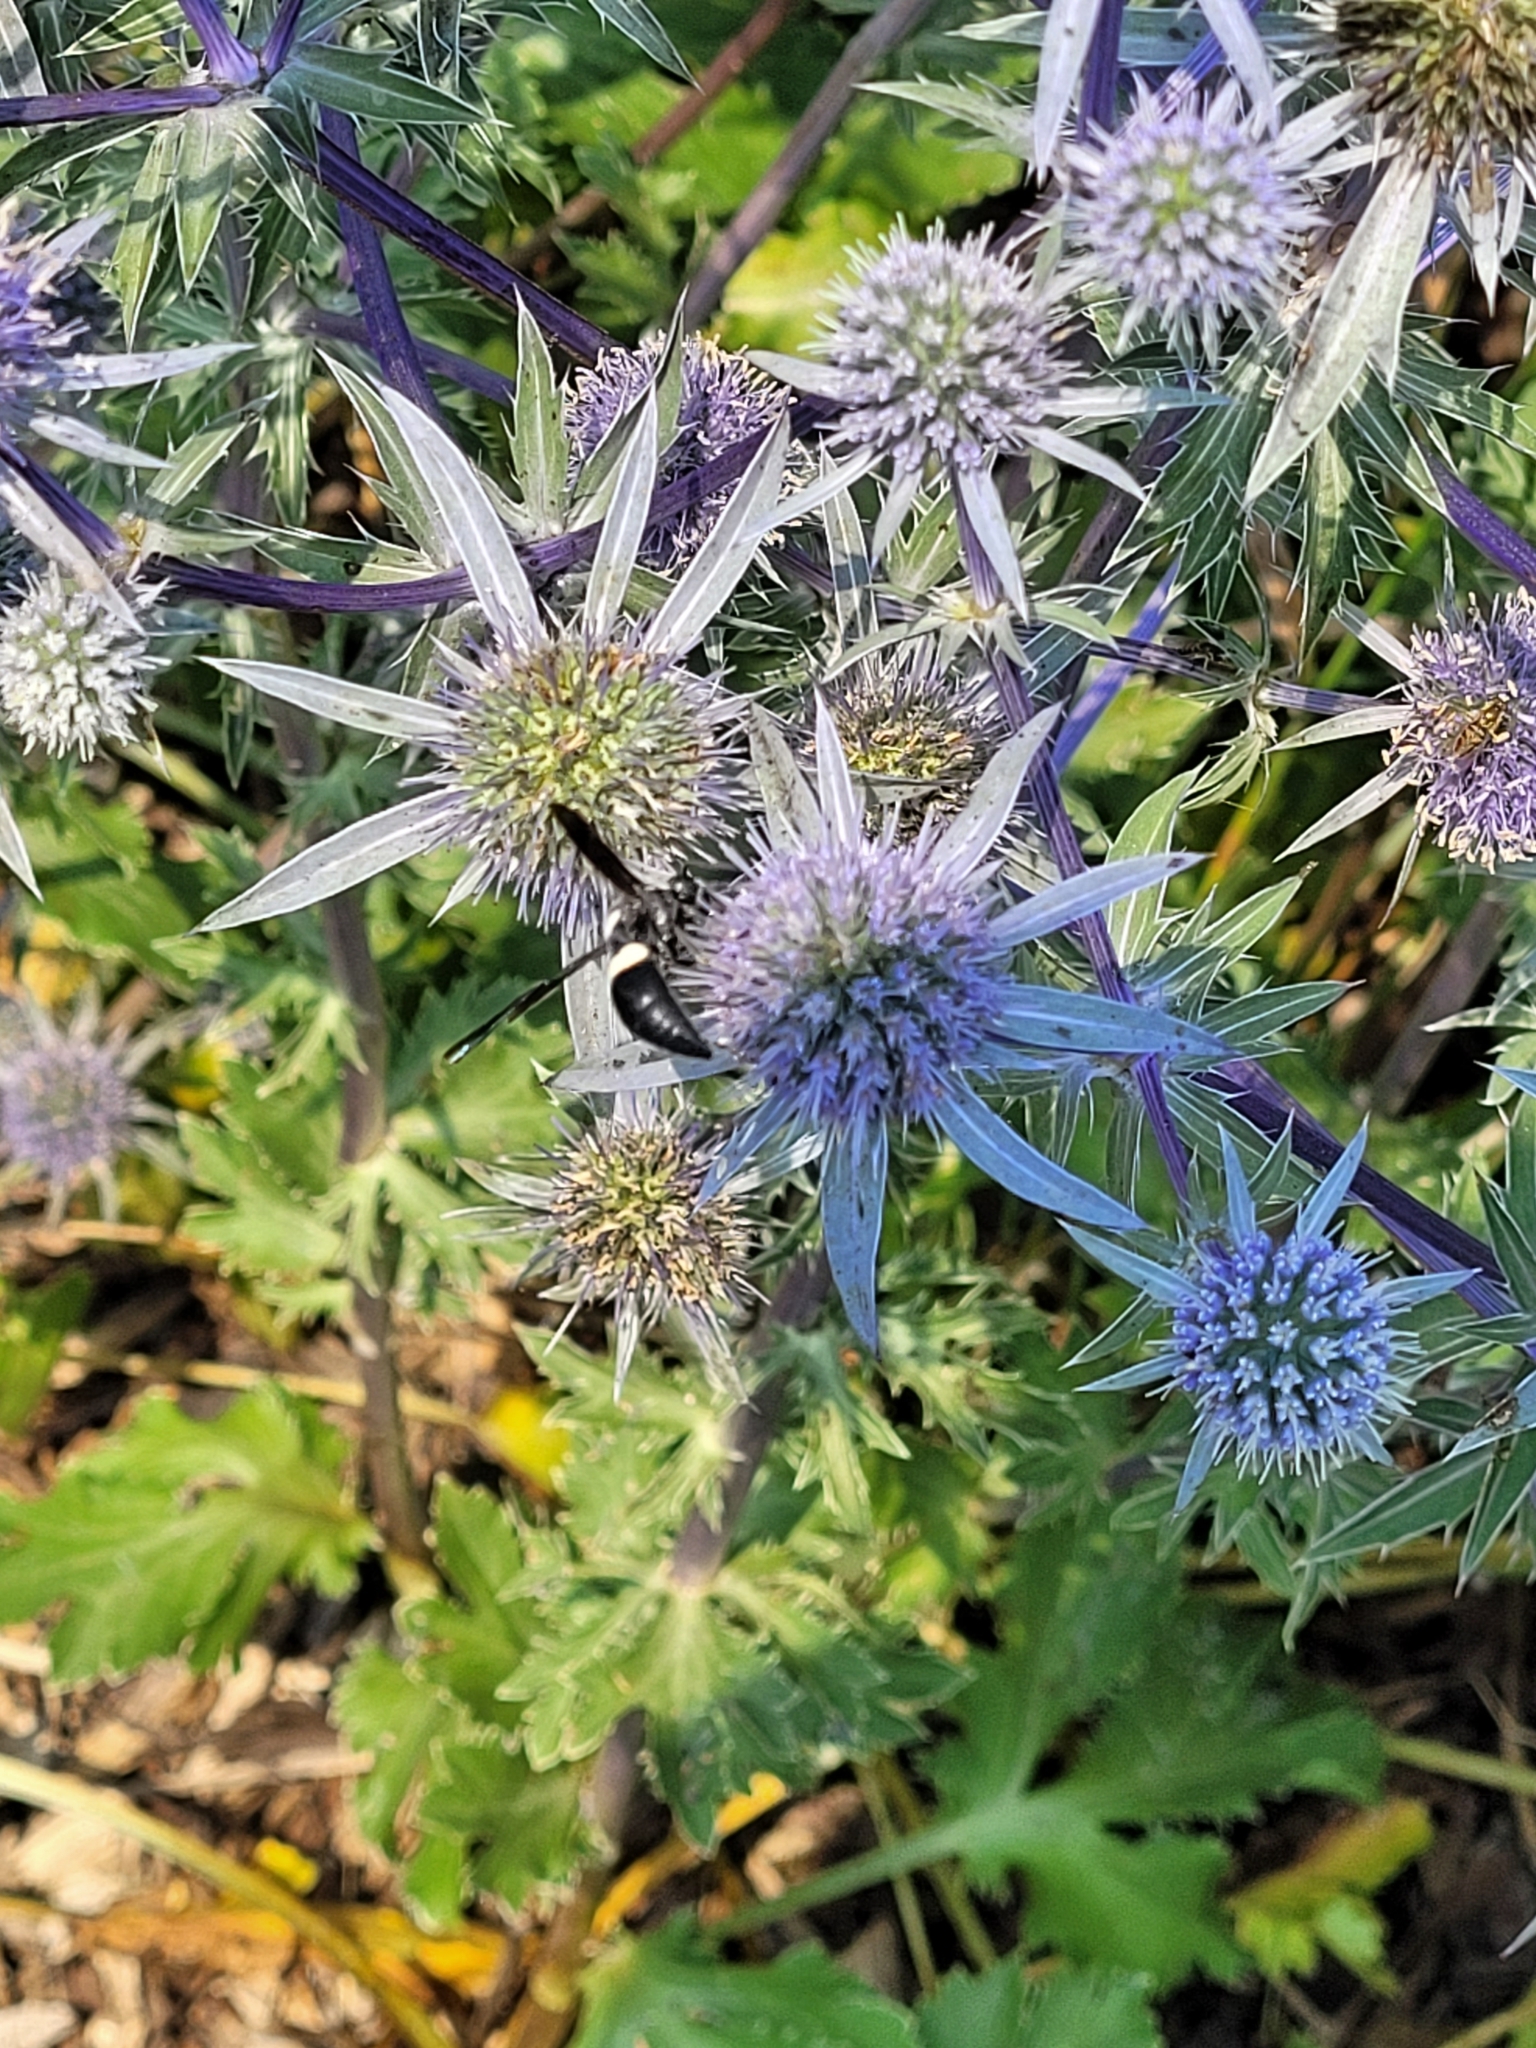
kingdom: Animalia
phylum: Arthropoda
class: Insecta
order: Hymenoptera
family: Eumenidae
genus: Monobia
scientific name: Monobia quadridens
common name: Four-toothed mason wasp
